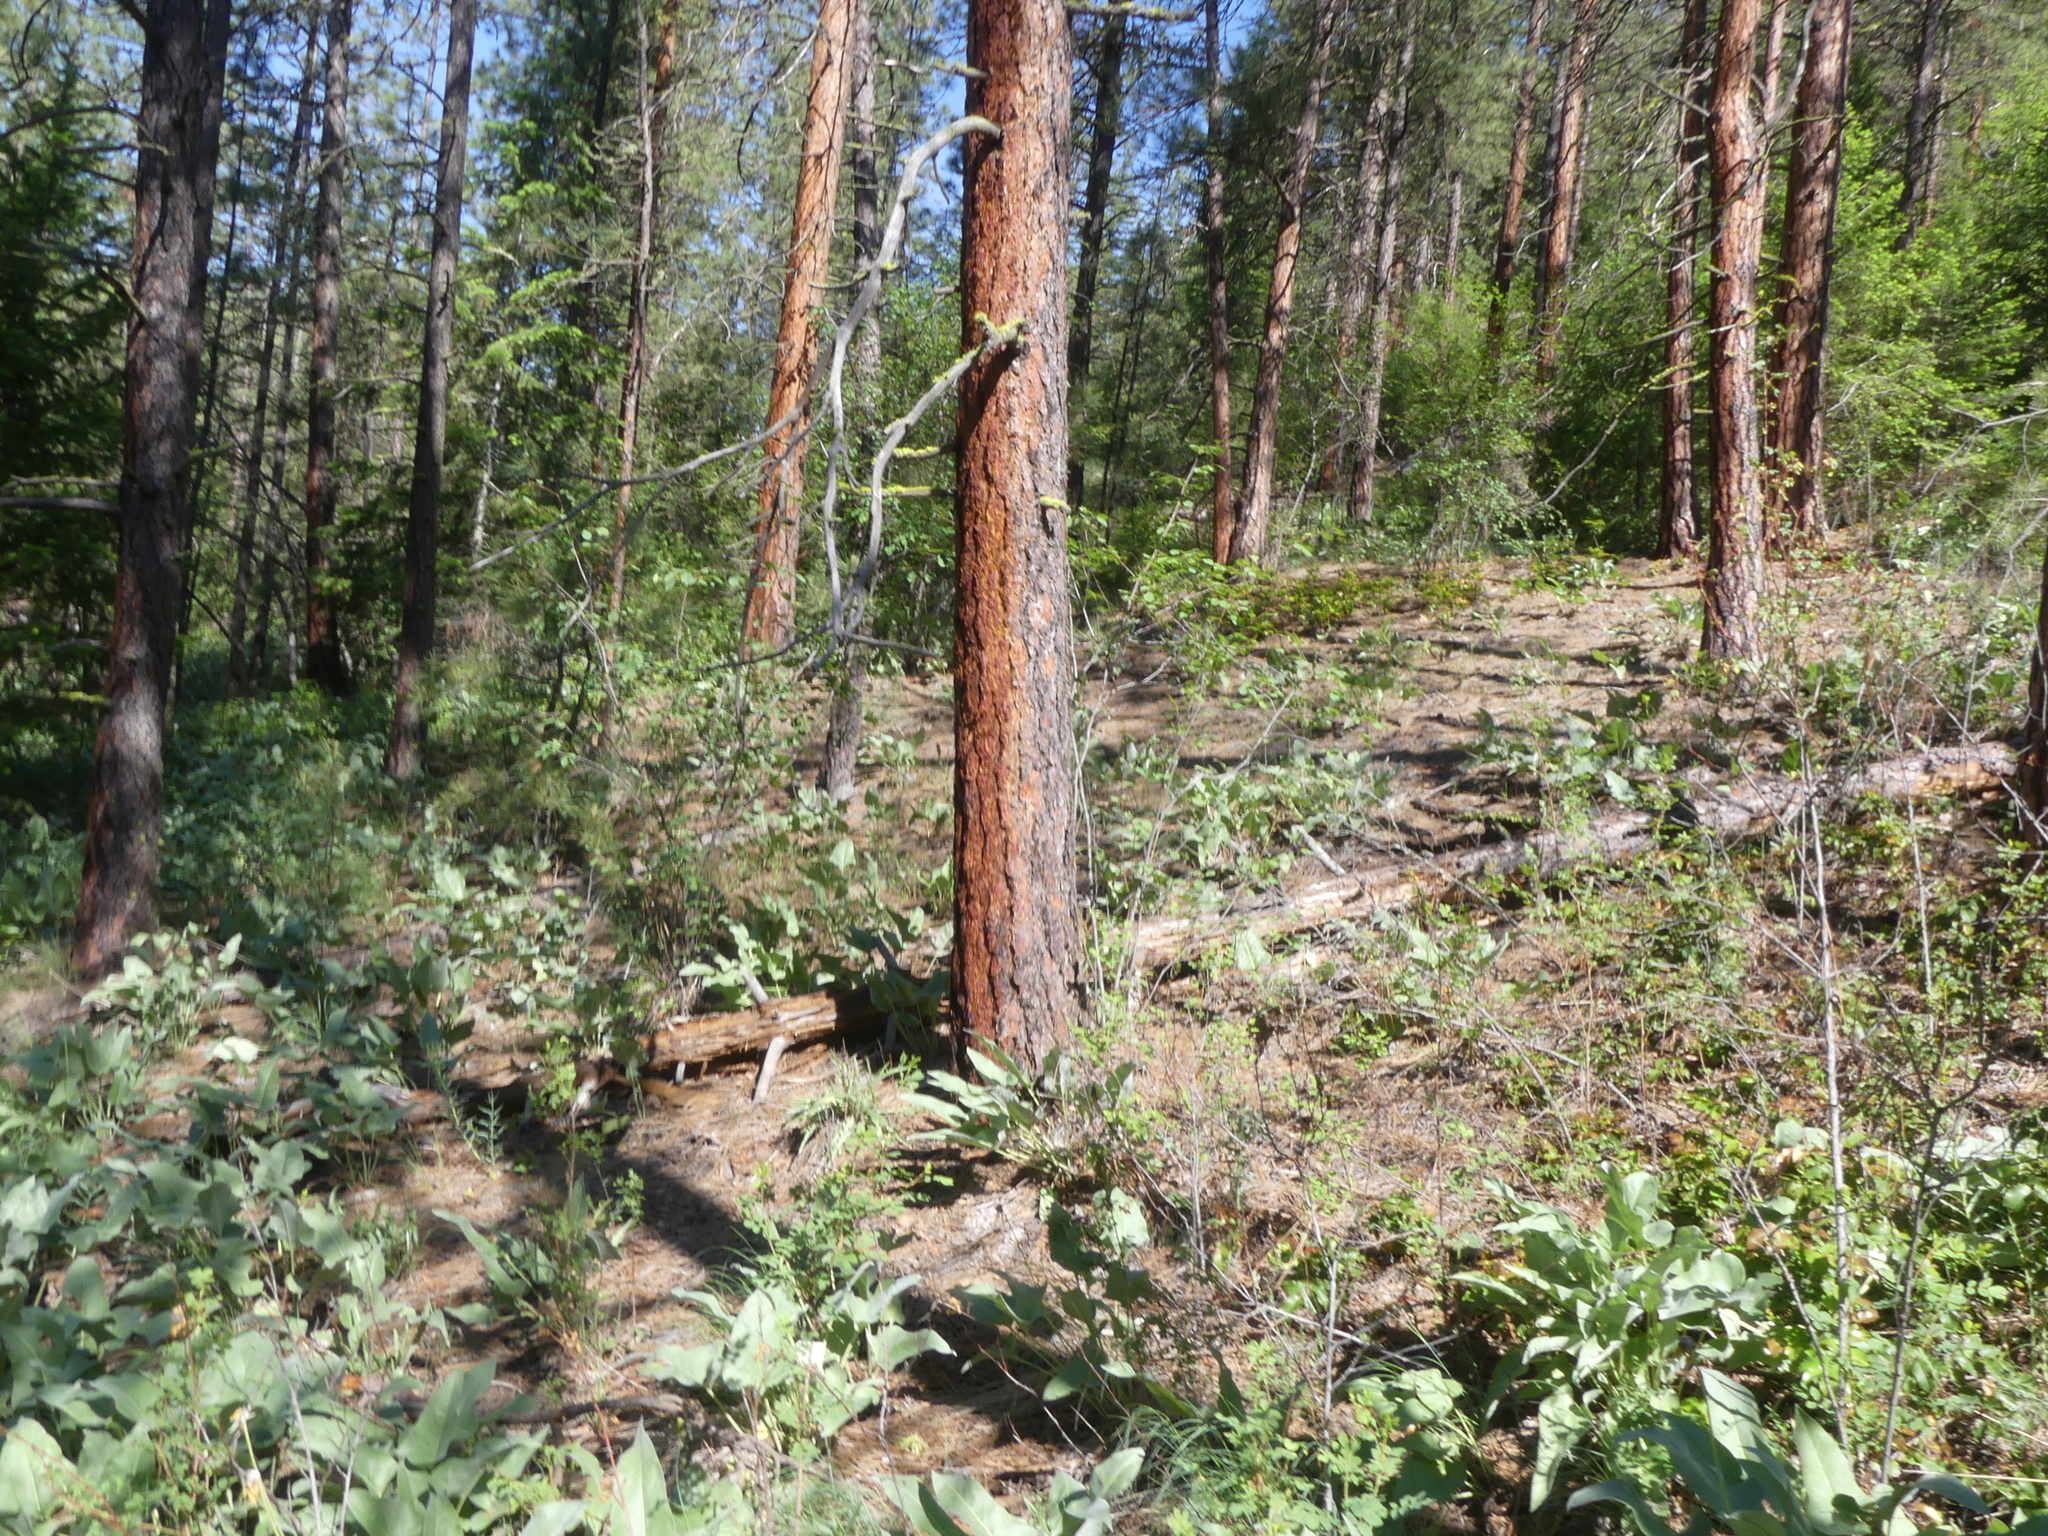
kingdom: Plantae
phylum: Tracheophyta
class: Pinopsida
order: Pinales
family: Pinaceae
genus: Pinus
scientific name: Pinus ponderosa
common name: Western yellow-pine
